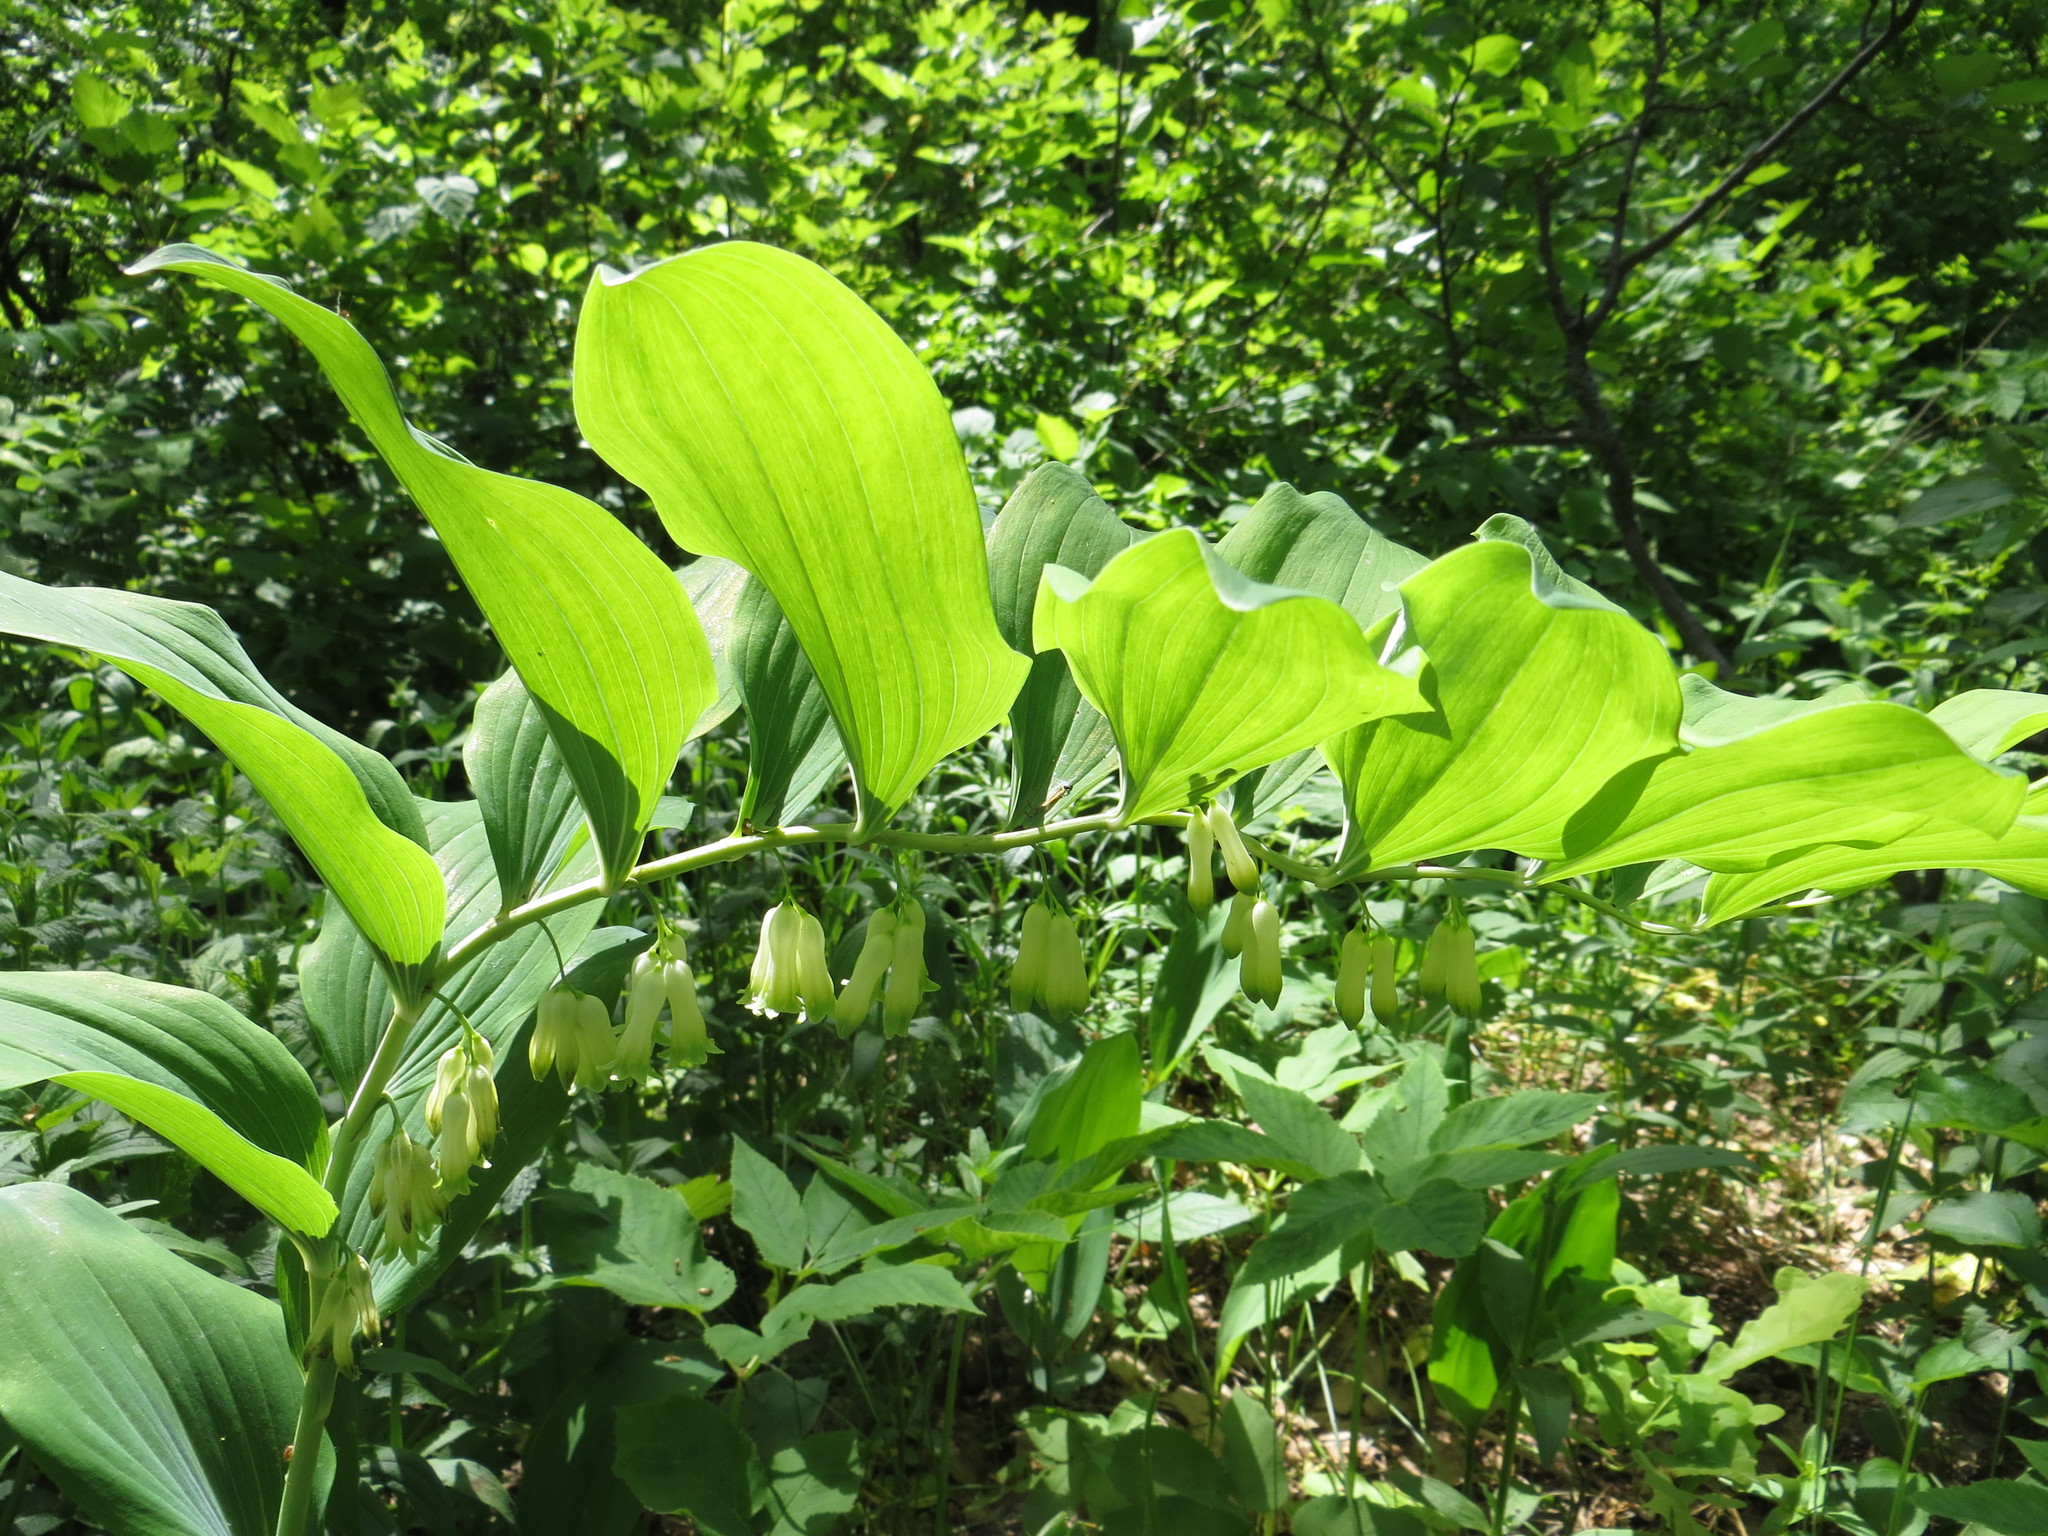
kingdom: Plantae
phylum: Tracheophyta
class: Liliopsida
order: Asparagales
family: Asparagaceae
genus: Polygonatum
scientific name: Polygonatum multiflorum
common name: Solomon's-seal
